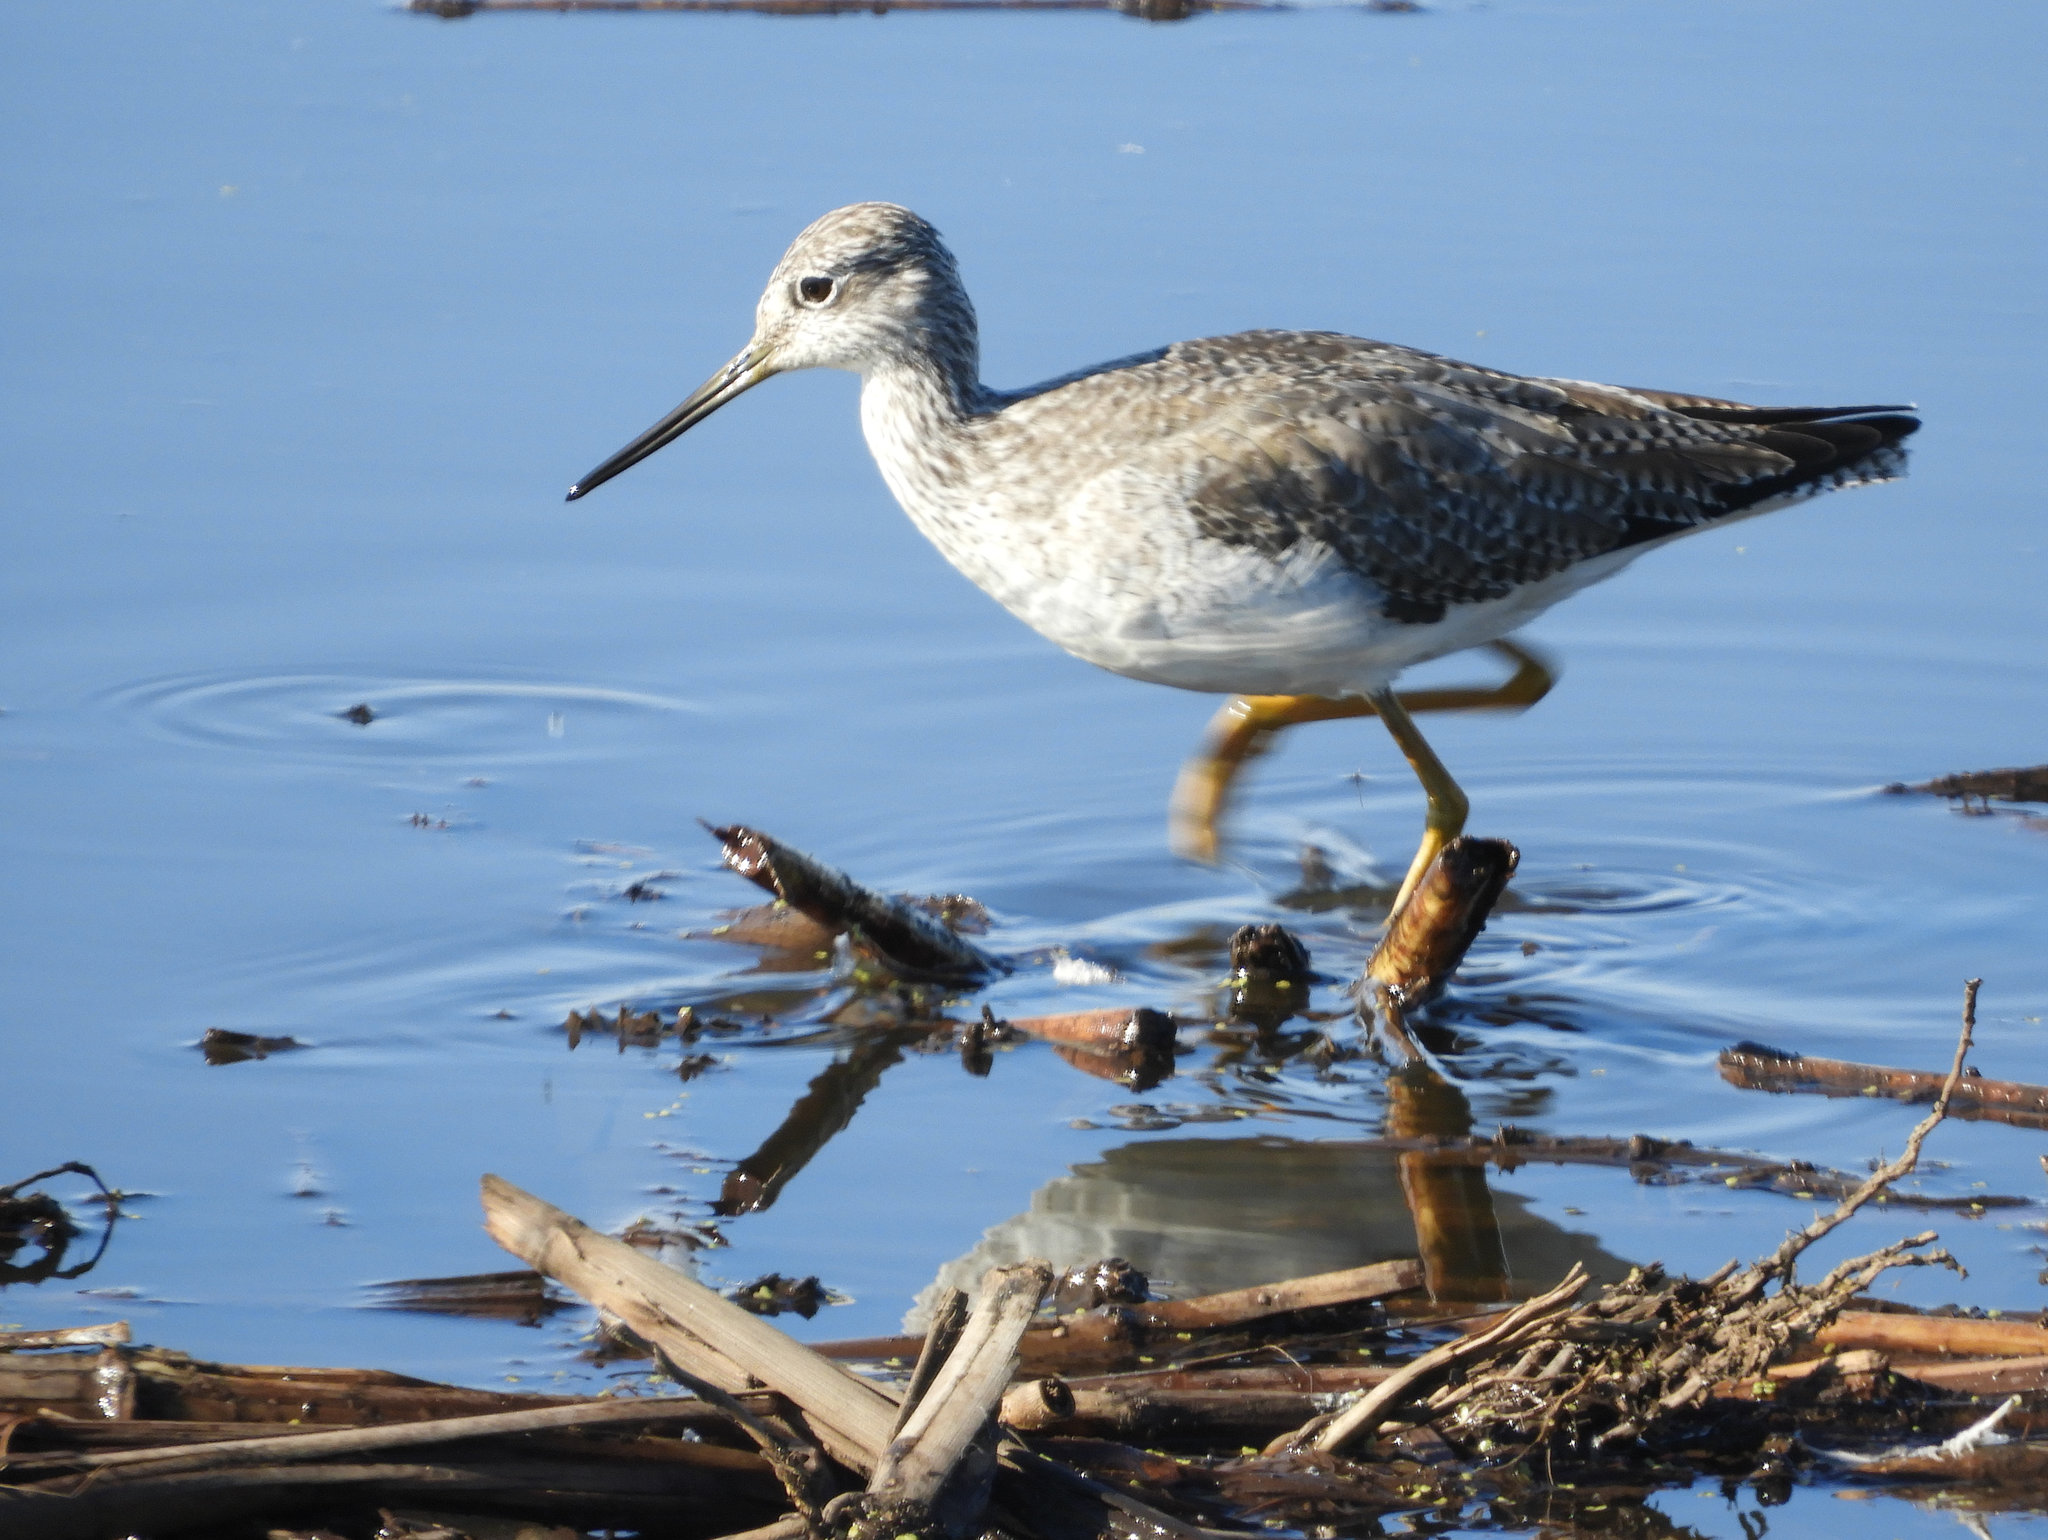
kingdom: Animalia
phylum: Chordata
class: Aves
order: Charadriiformes
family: Scolopacidae
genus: Tringa
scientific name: Tringa melanoleuca
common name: Greater yellowlegs
